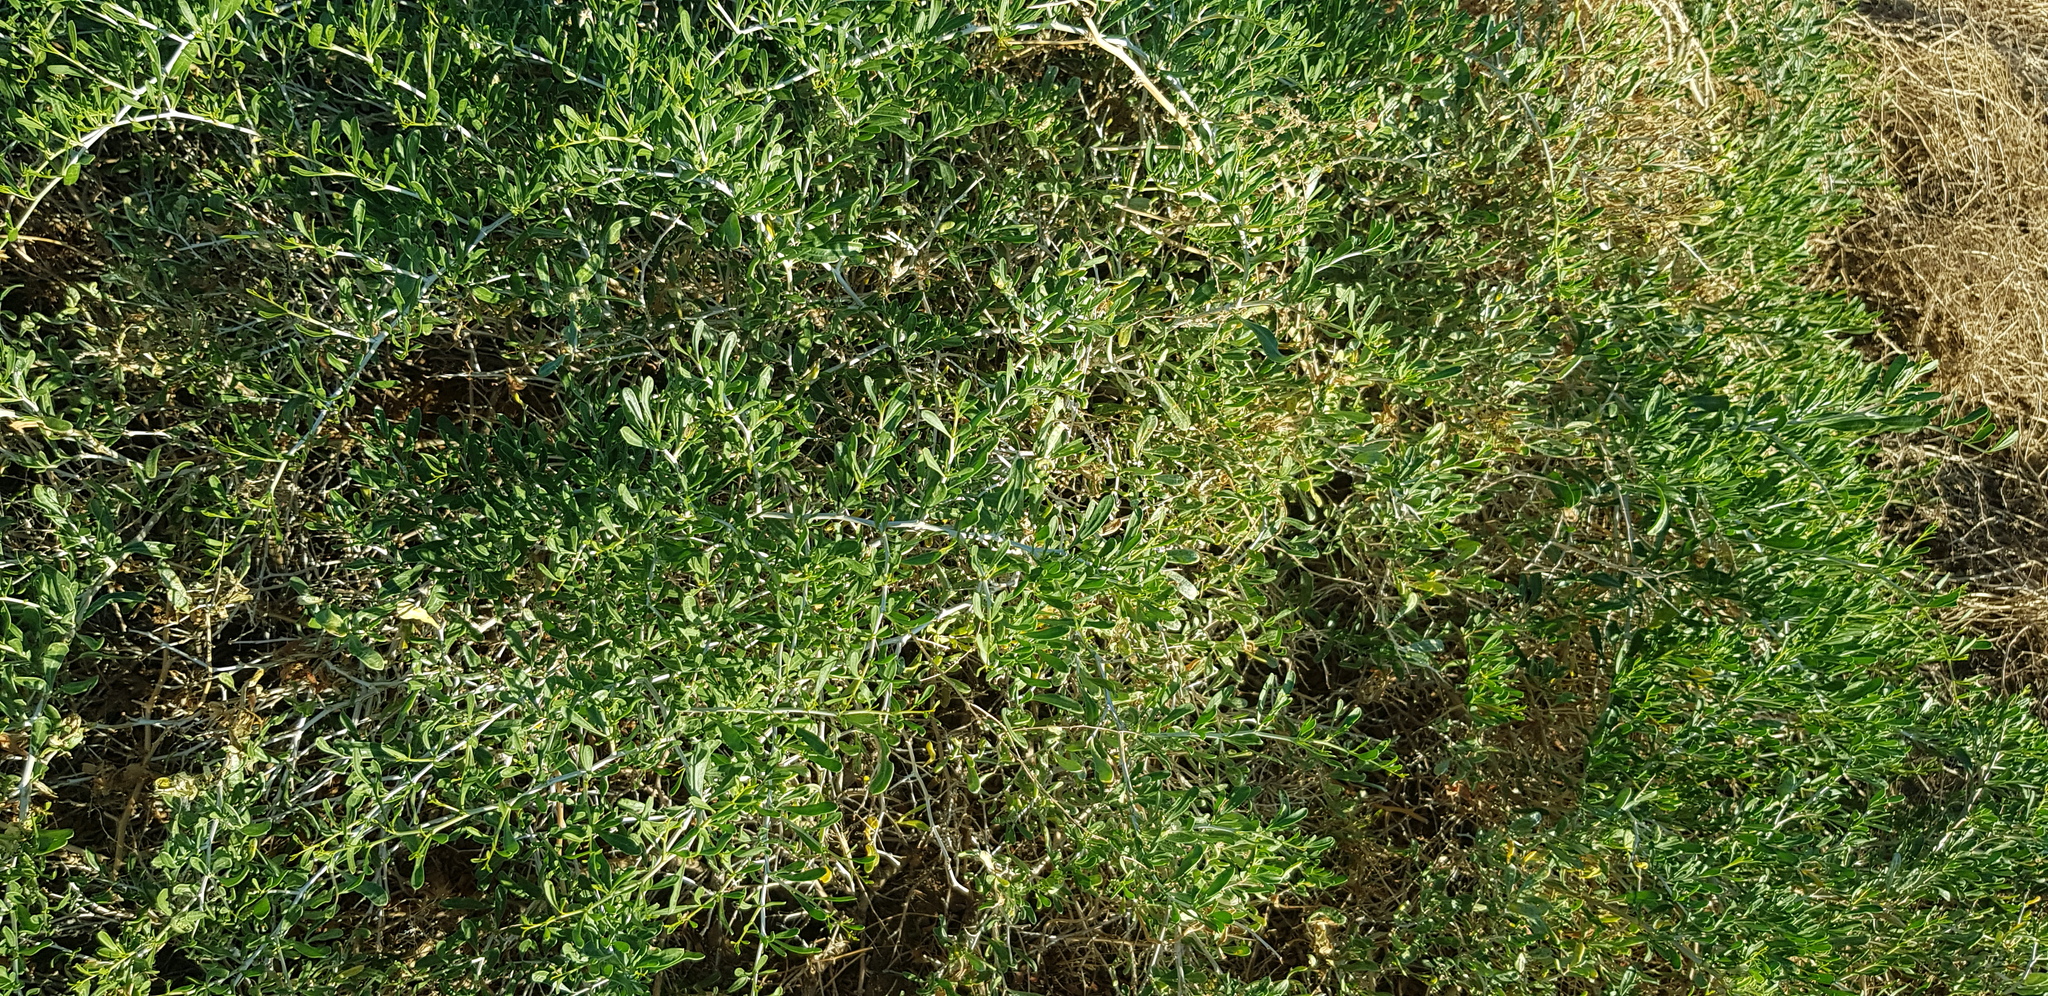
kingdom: Plantae
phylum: Tracheophyta
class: Magnoliopsida
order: Sapindales
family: Nitrariaceae
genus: Nitraria
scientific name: Nitraria sibirica
